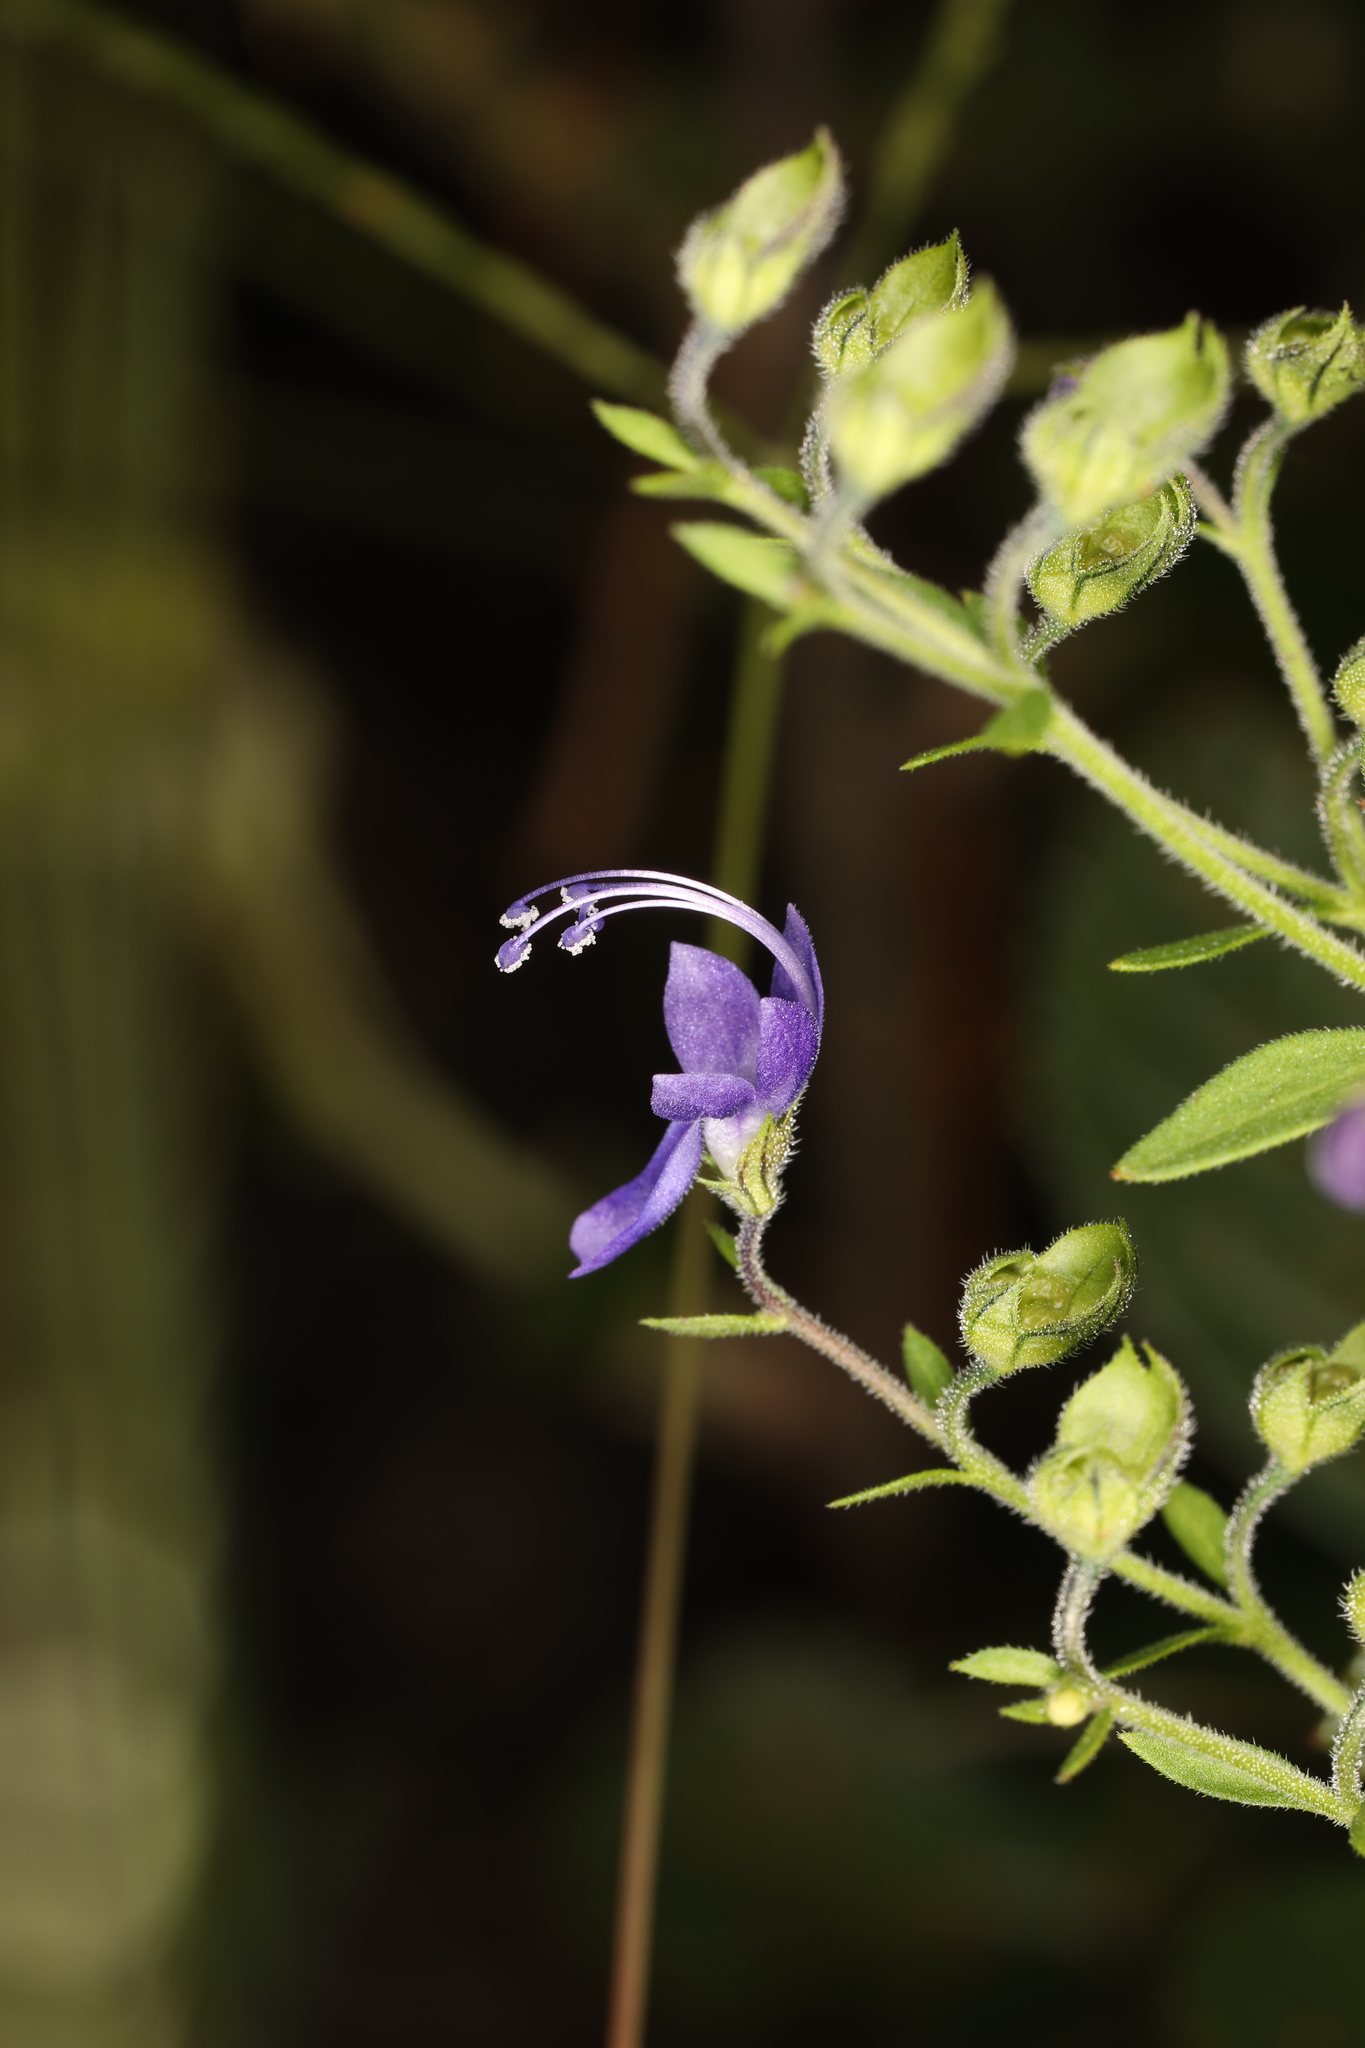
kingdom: Plantae
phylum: Tracheophyta
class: Magnoliopsida
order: Lamiales
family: Lamiaceae
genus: Trichostema
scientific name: Trichostema dichotomum
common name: Bastard pennyroyal
